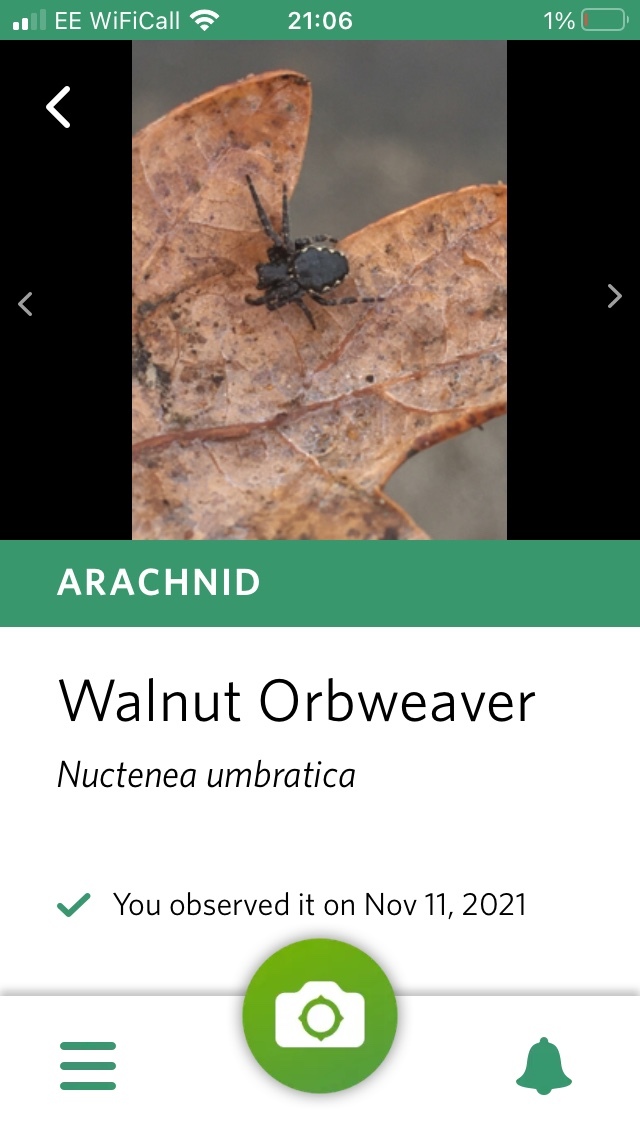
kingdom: Animalia
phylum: Arthropoda
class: Arachnida
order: Araneae
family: Araneidae
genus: Nuctenea
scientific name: Nuctenea umbratica
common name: Toad spider
